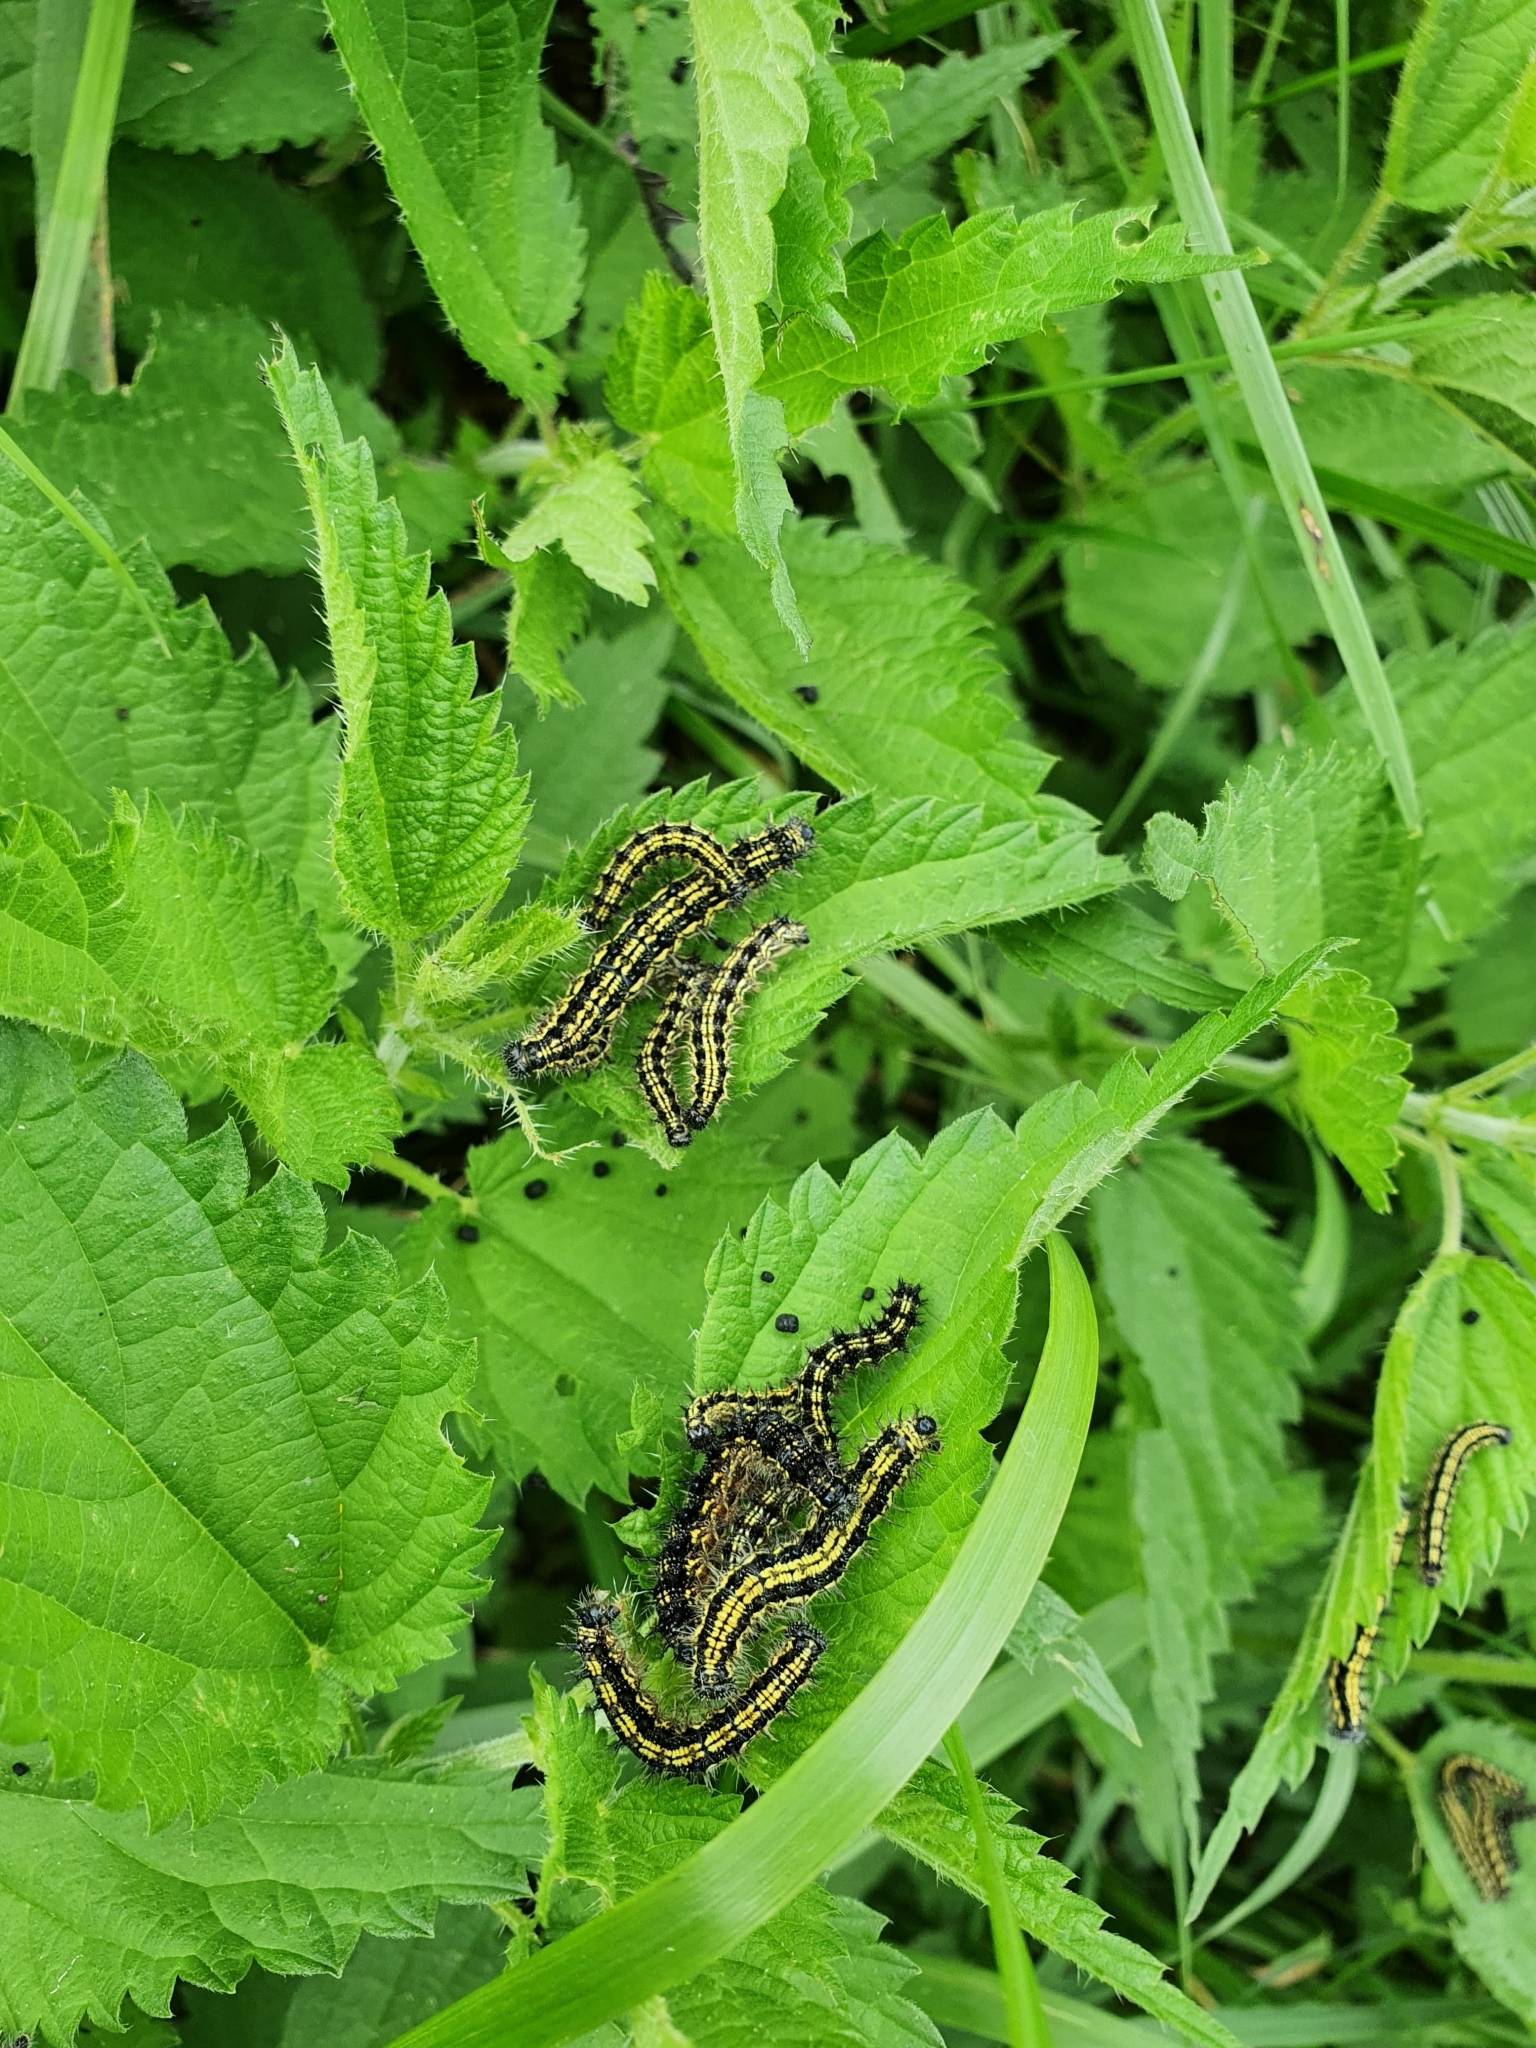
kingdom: Animalia
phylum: Arthropoda
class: Insecta
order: Lepidoptera
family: Nymphalidae
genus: Aglais
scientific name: Aglais urticae
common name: Small tortoiseshell
